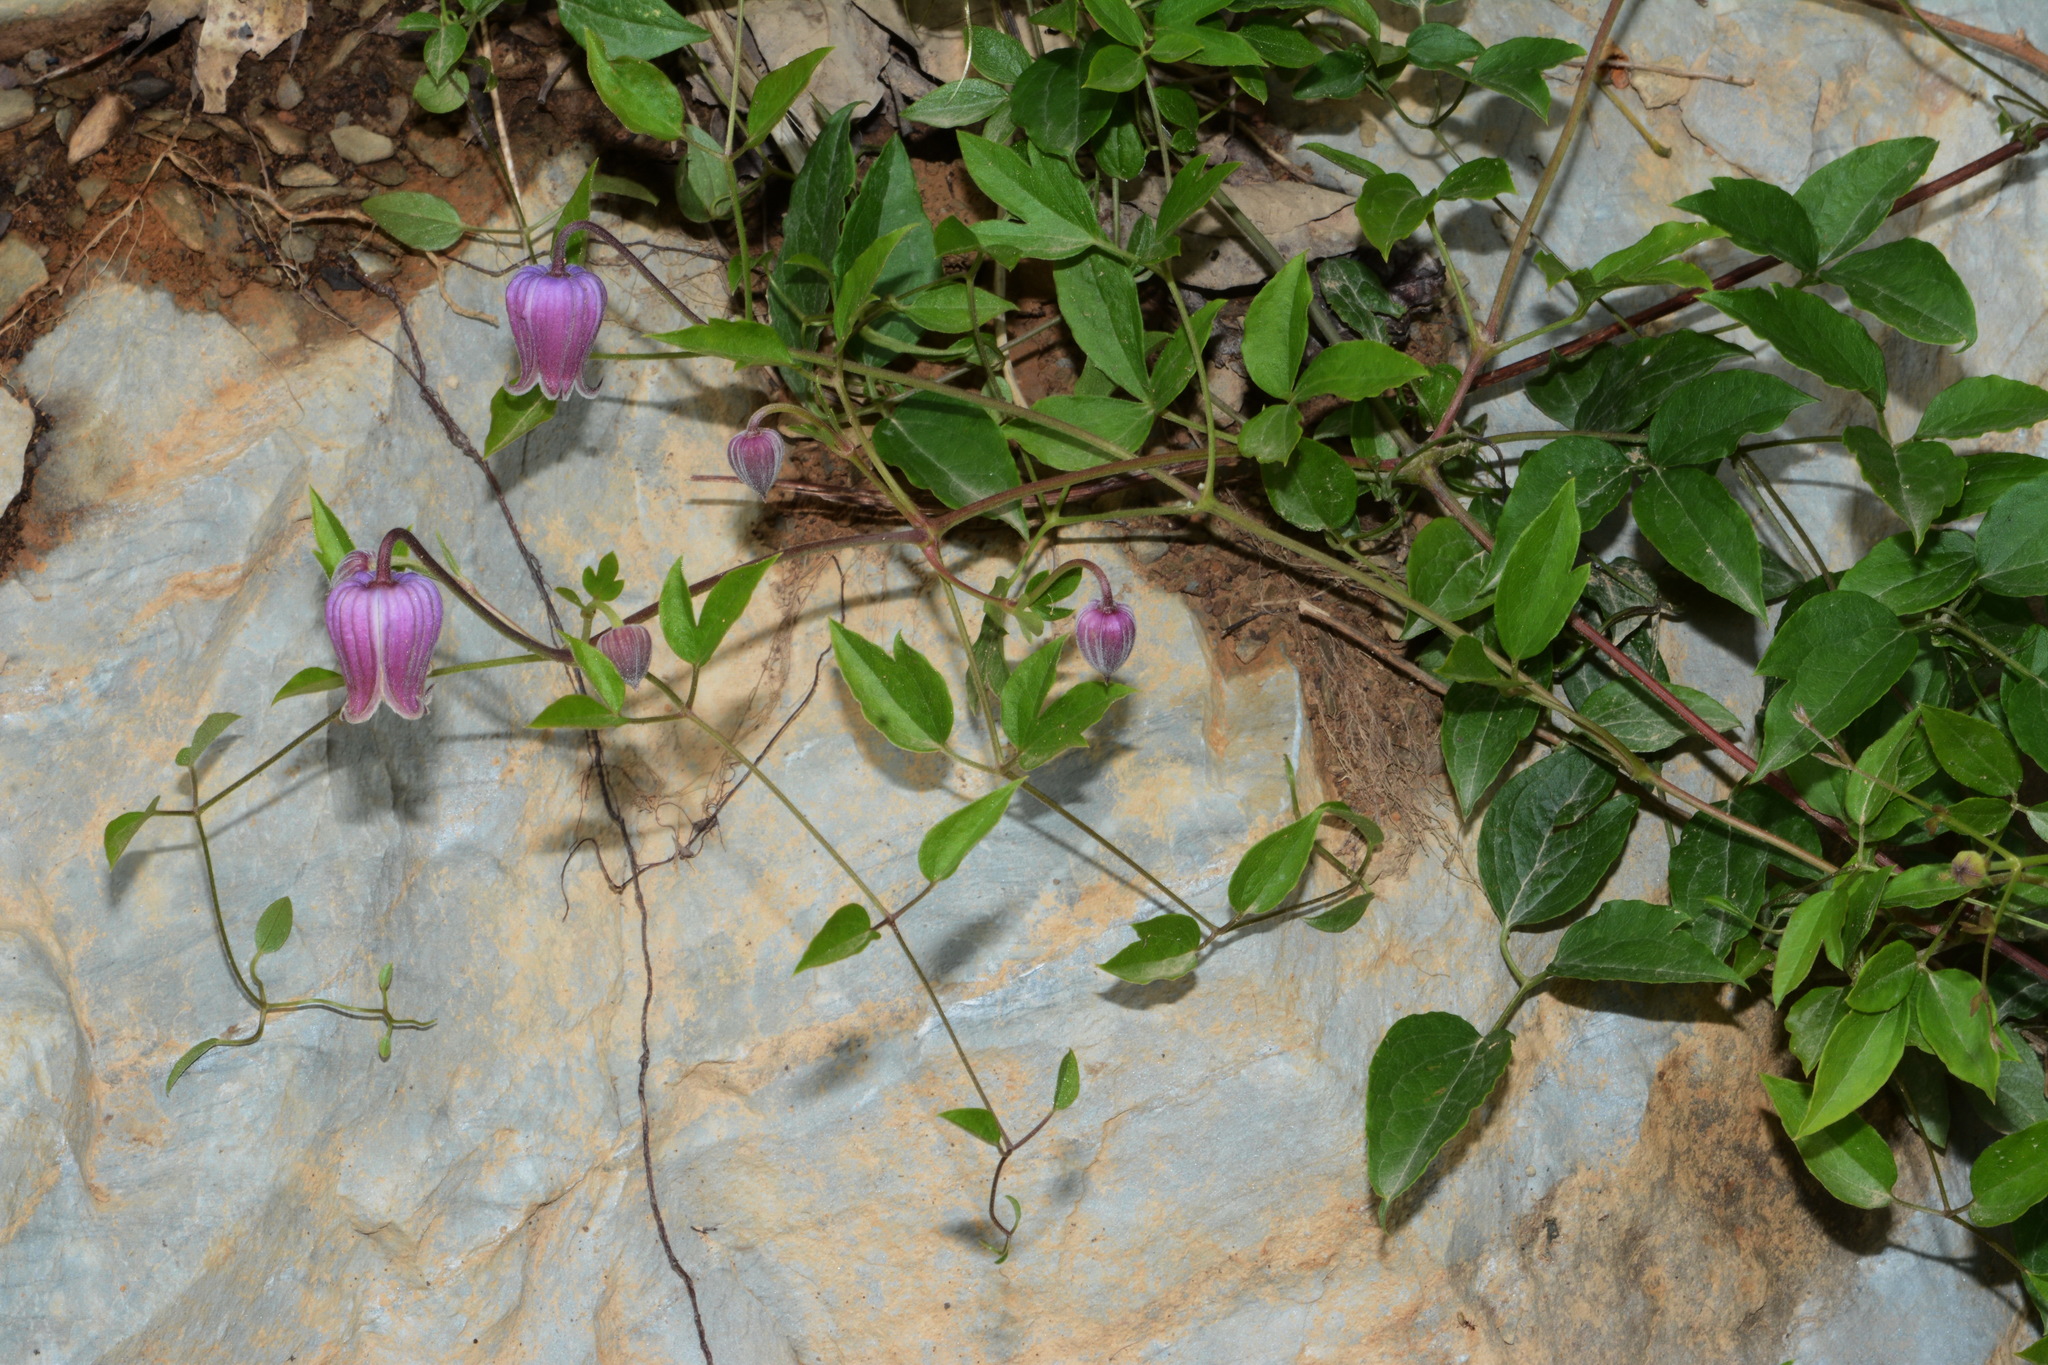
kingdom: Plantae
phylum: Tracheophyta
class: Magnoliopsida
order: Ranunculales
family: Ranunculaceae
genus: Clematis
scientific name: Clematis vinacea
